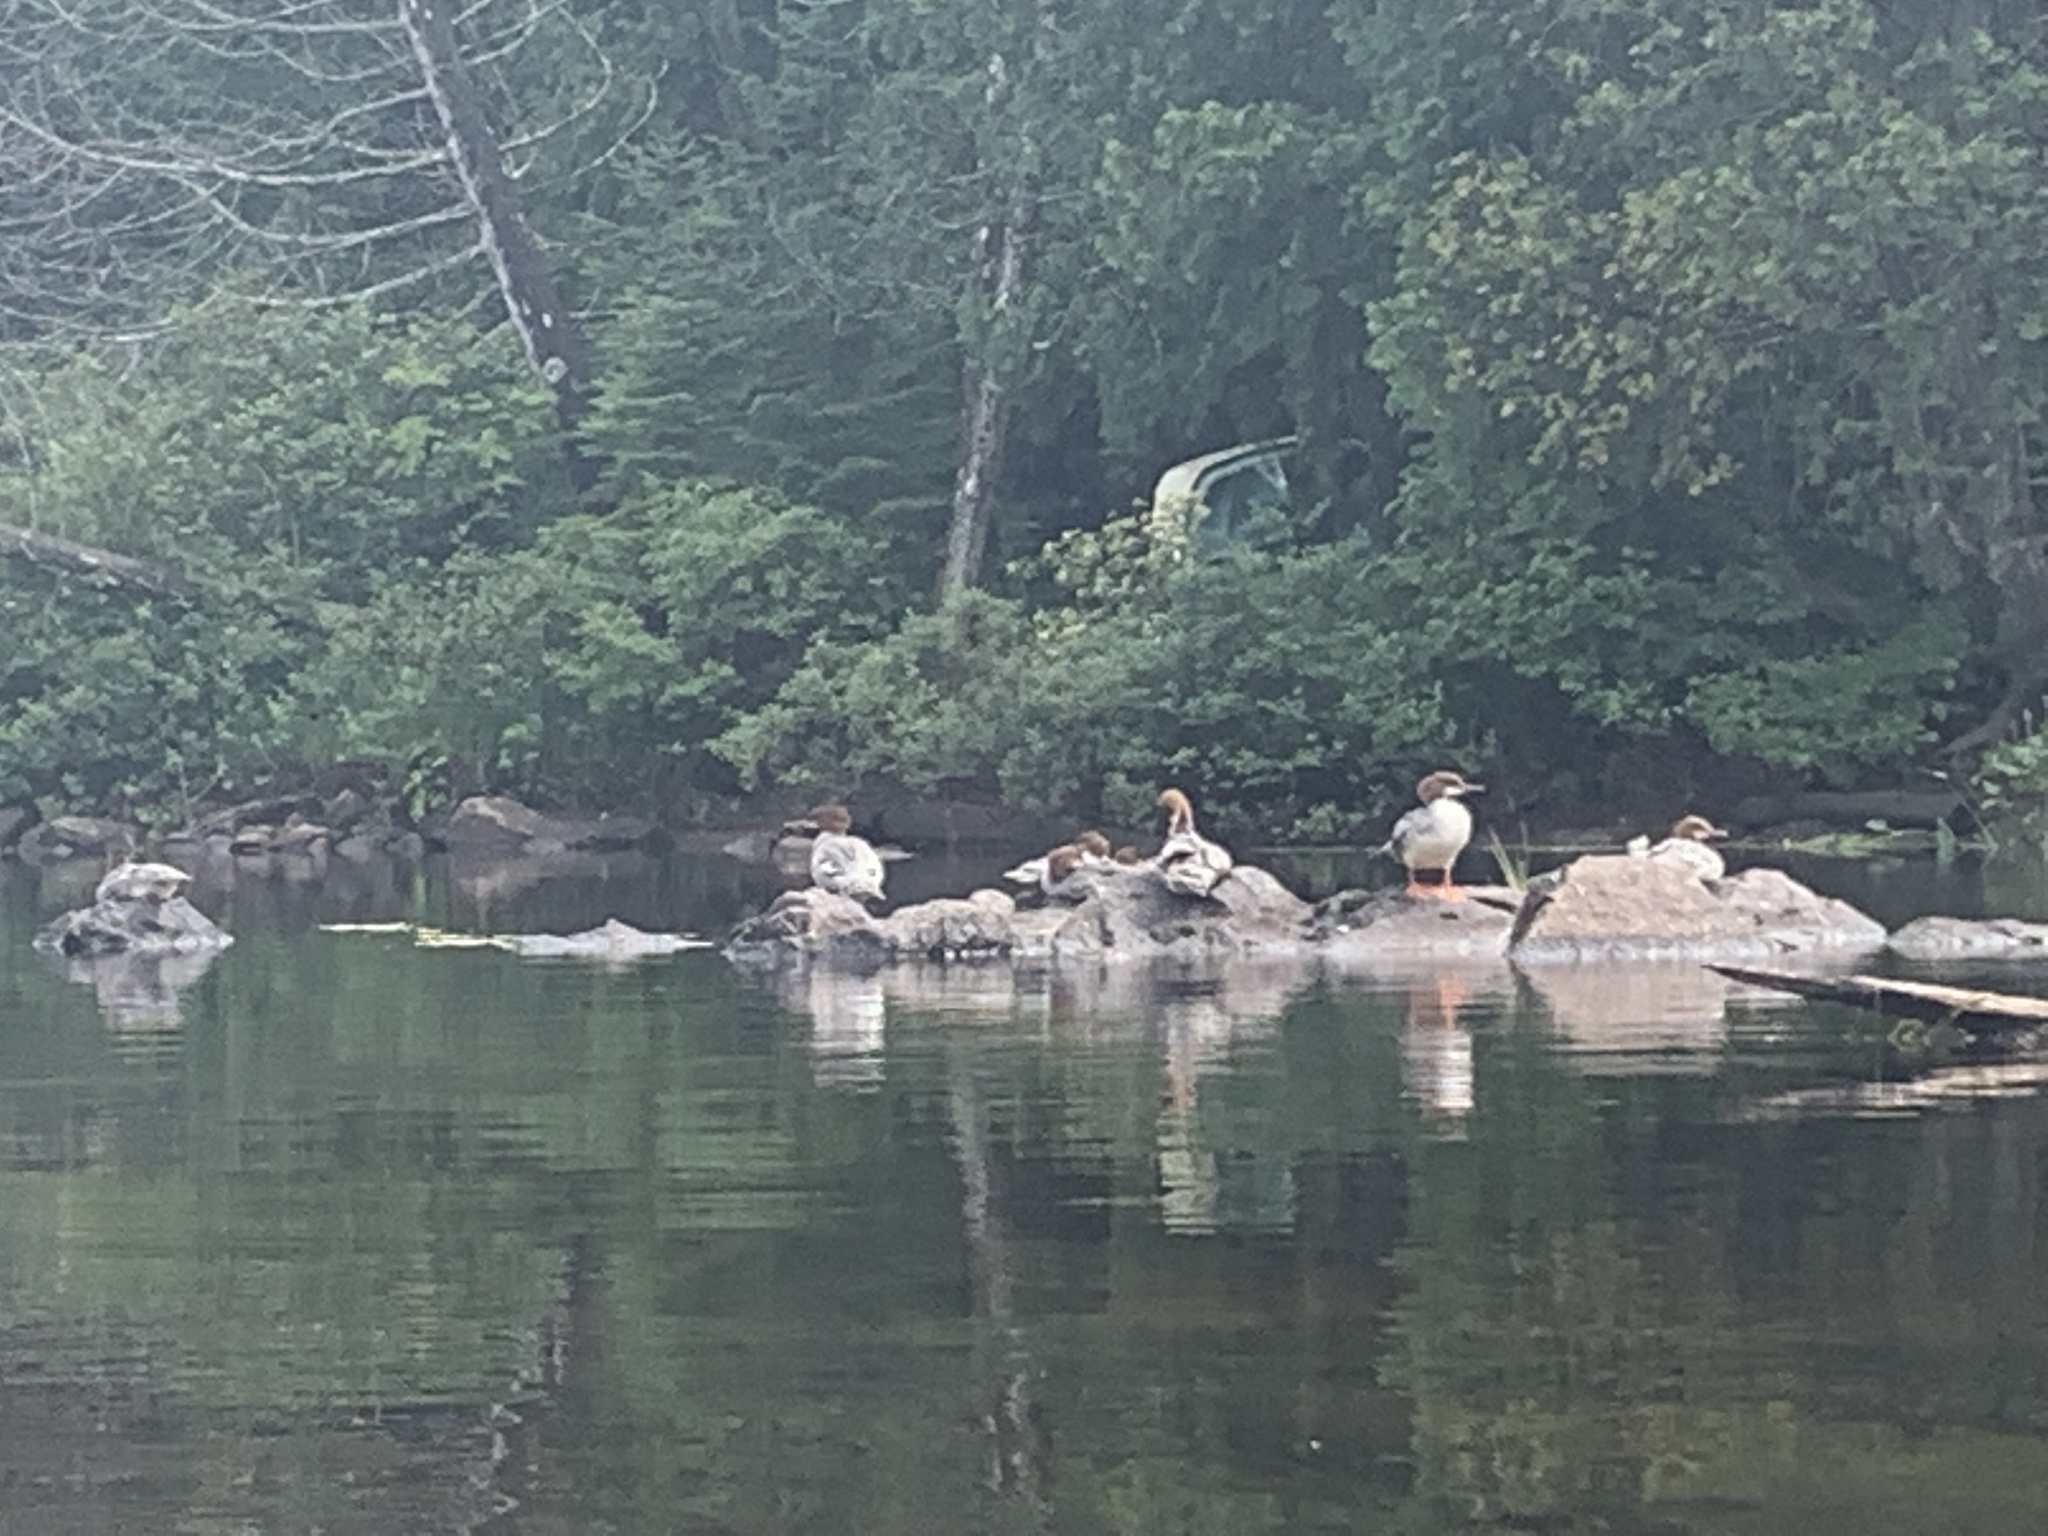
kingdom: Animalia
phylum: Chordata
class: Aves
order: Anseriformes
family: Anatidae
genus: Mergus
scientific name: Mergus merganser
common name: Common merganser
